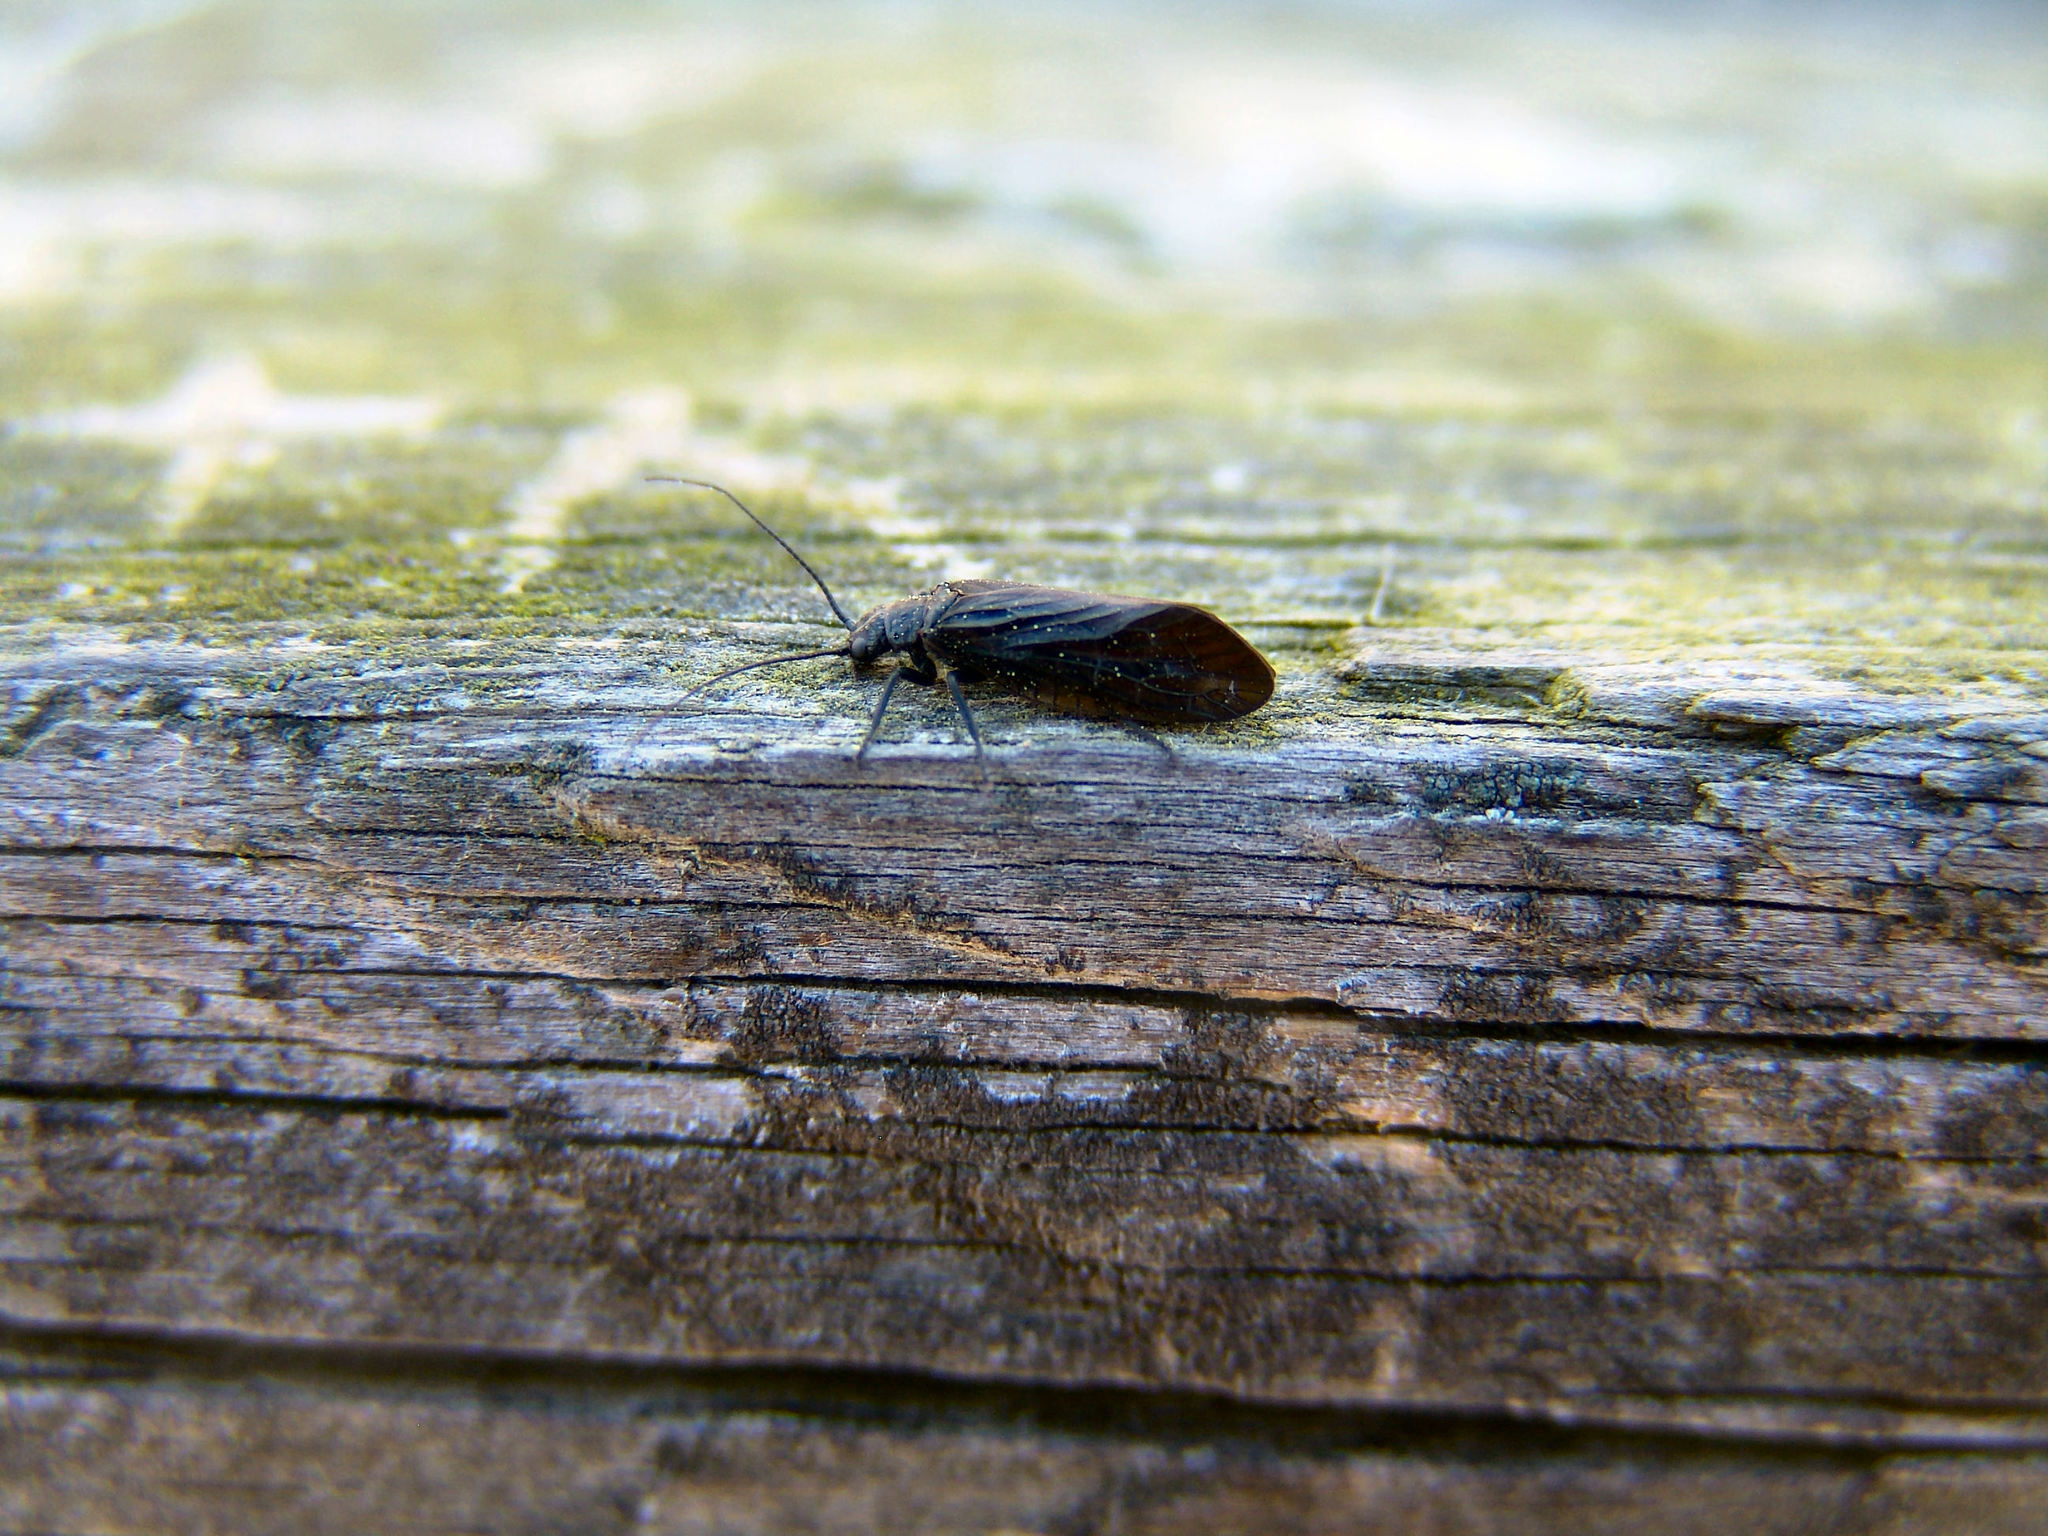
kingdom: Animalia
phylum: Arthropoda
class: Insecta
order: Megaloptera
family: Sialidae
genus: Sialis
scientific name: Sialis
